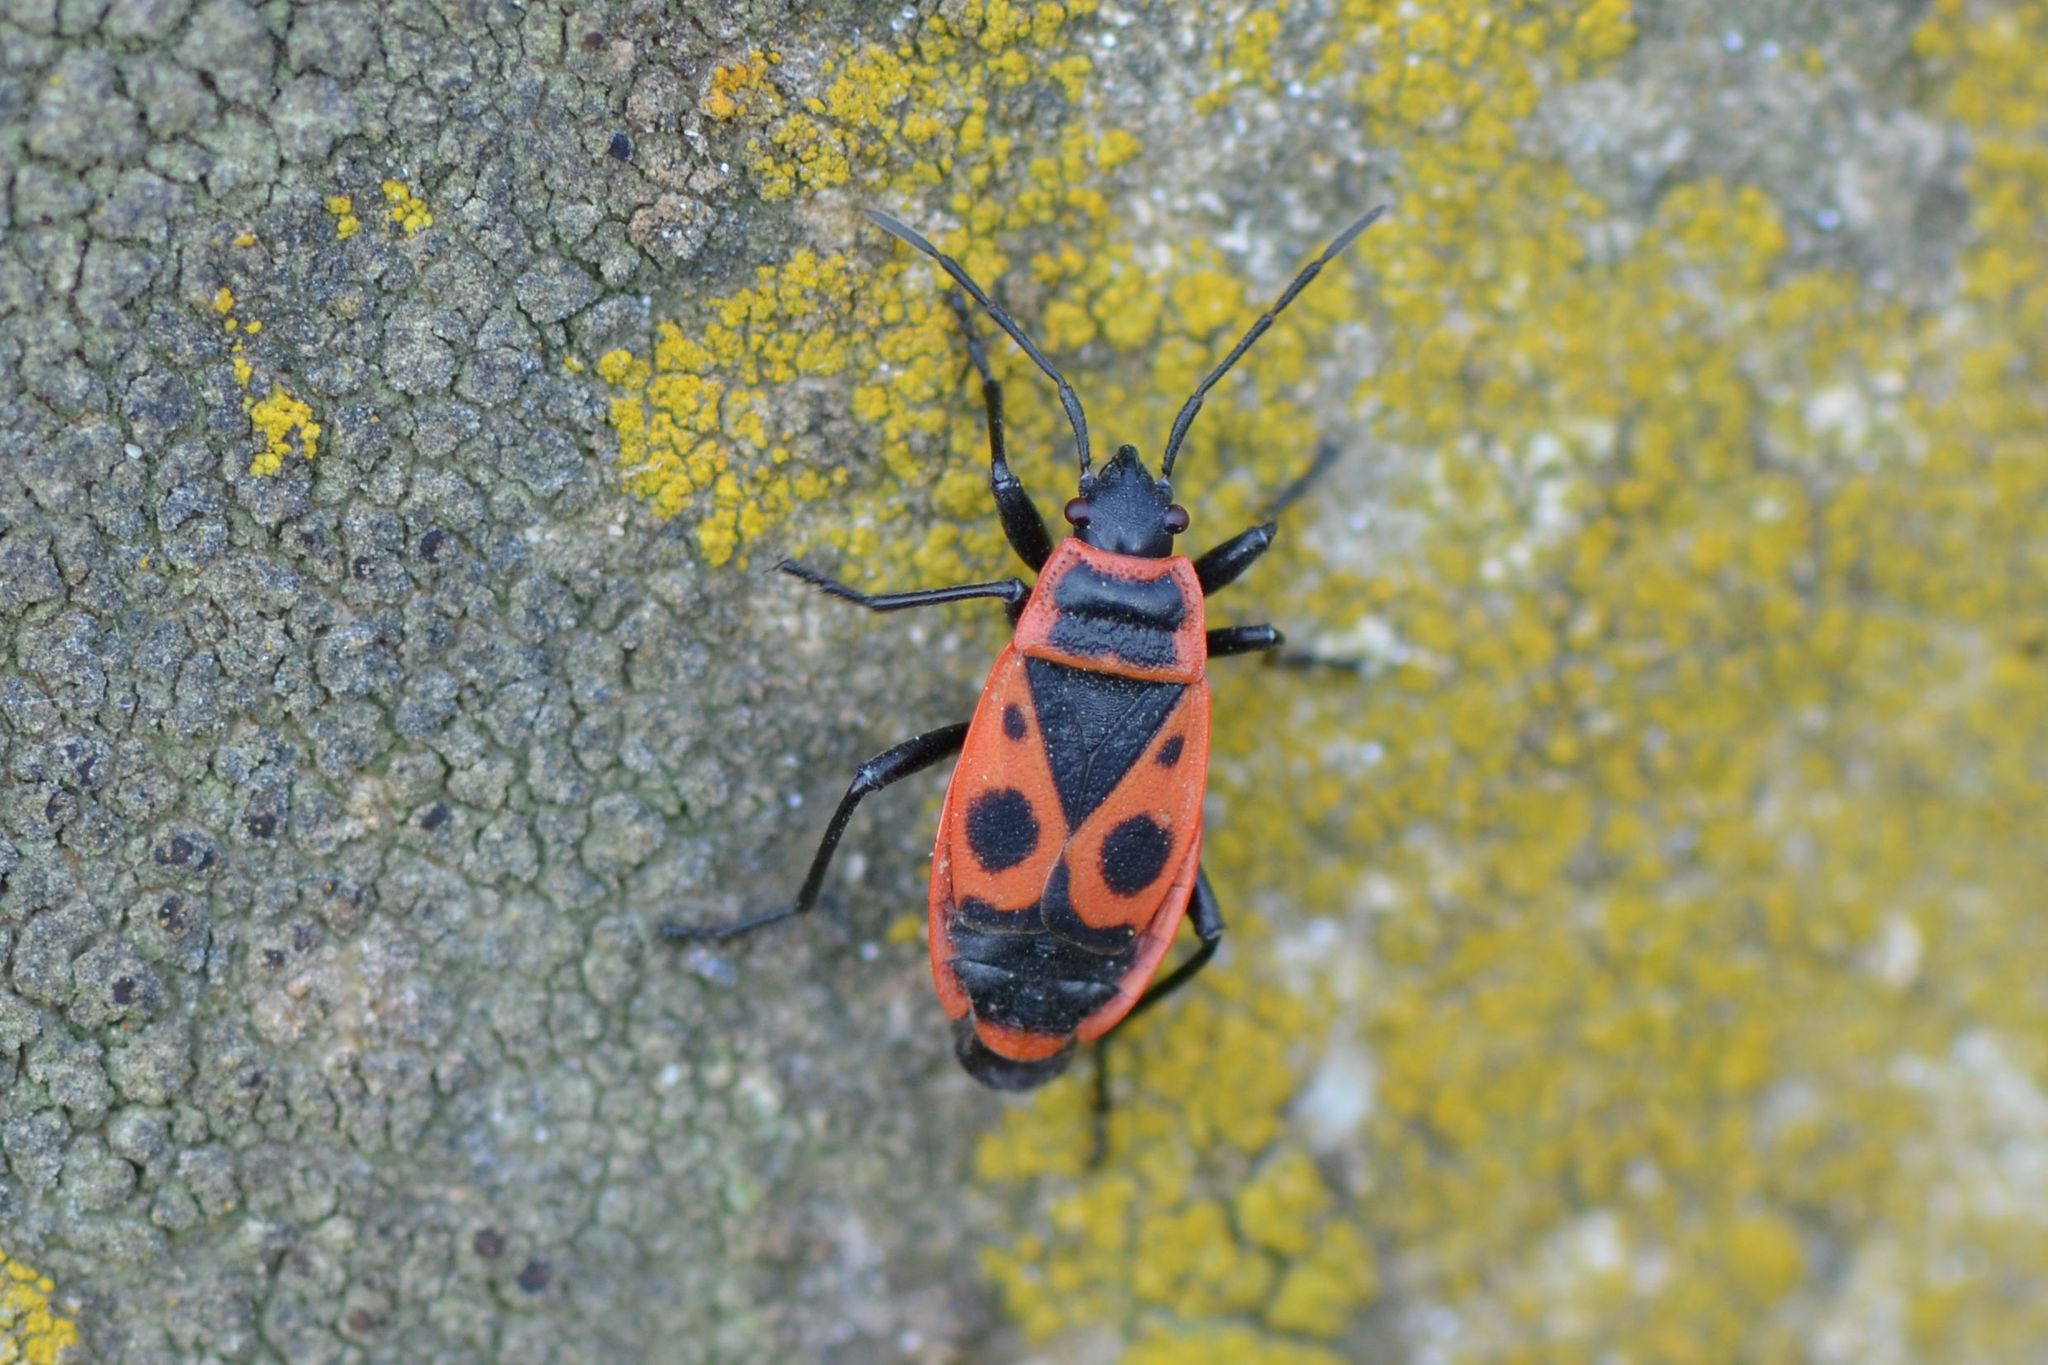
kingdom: Animalia
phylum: Arthropoda
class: Insecta
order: Hemiptera
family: Pyrrhocoridae
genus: Pyrrhocoris
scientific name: Pyrrhocoris apterus
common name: Firebug
